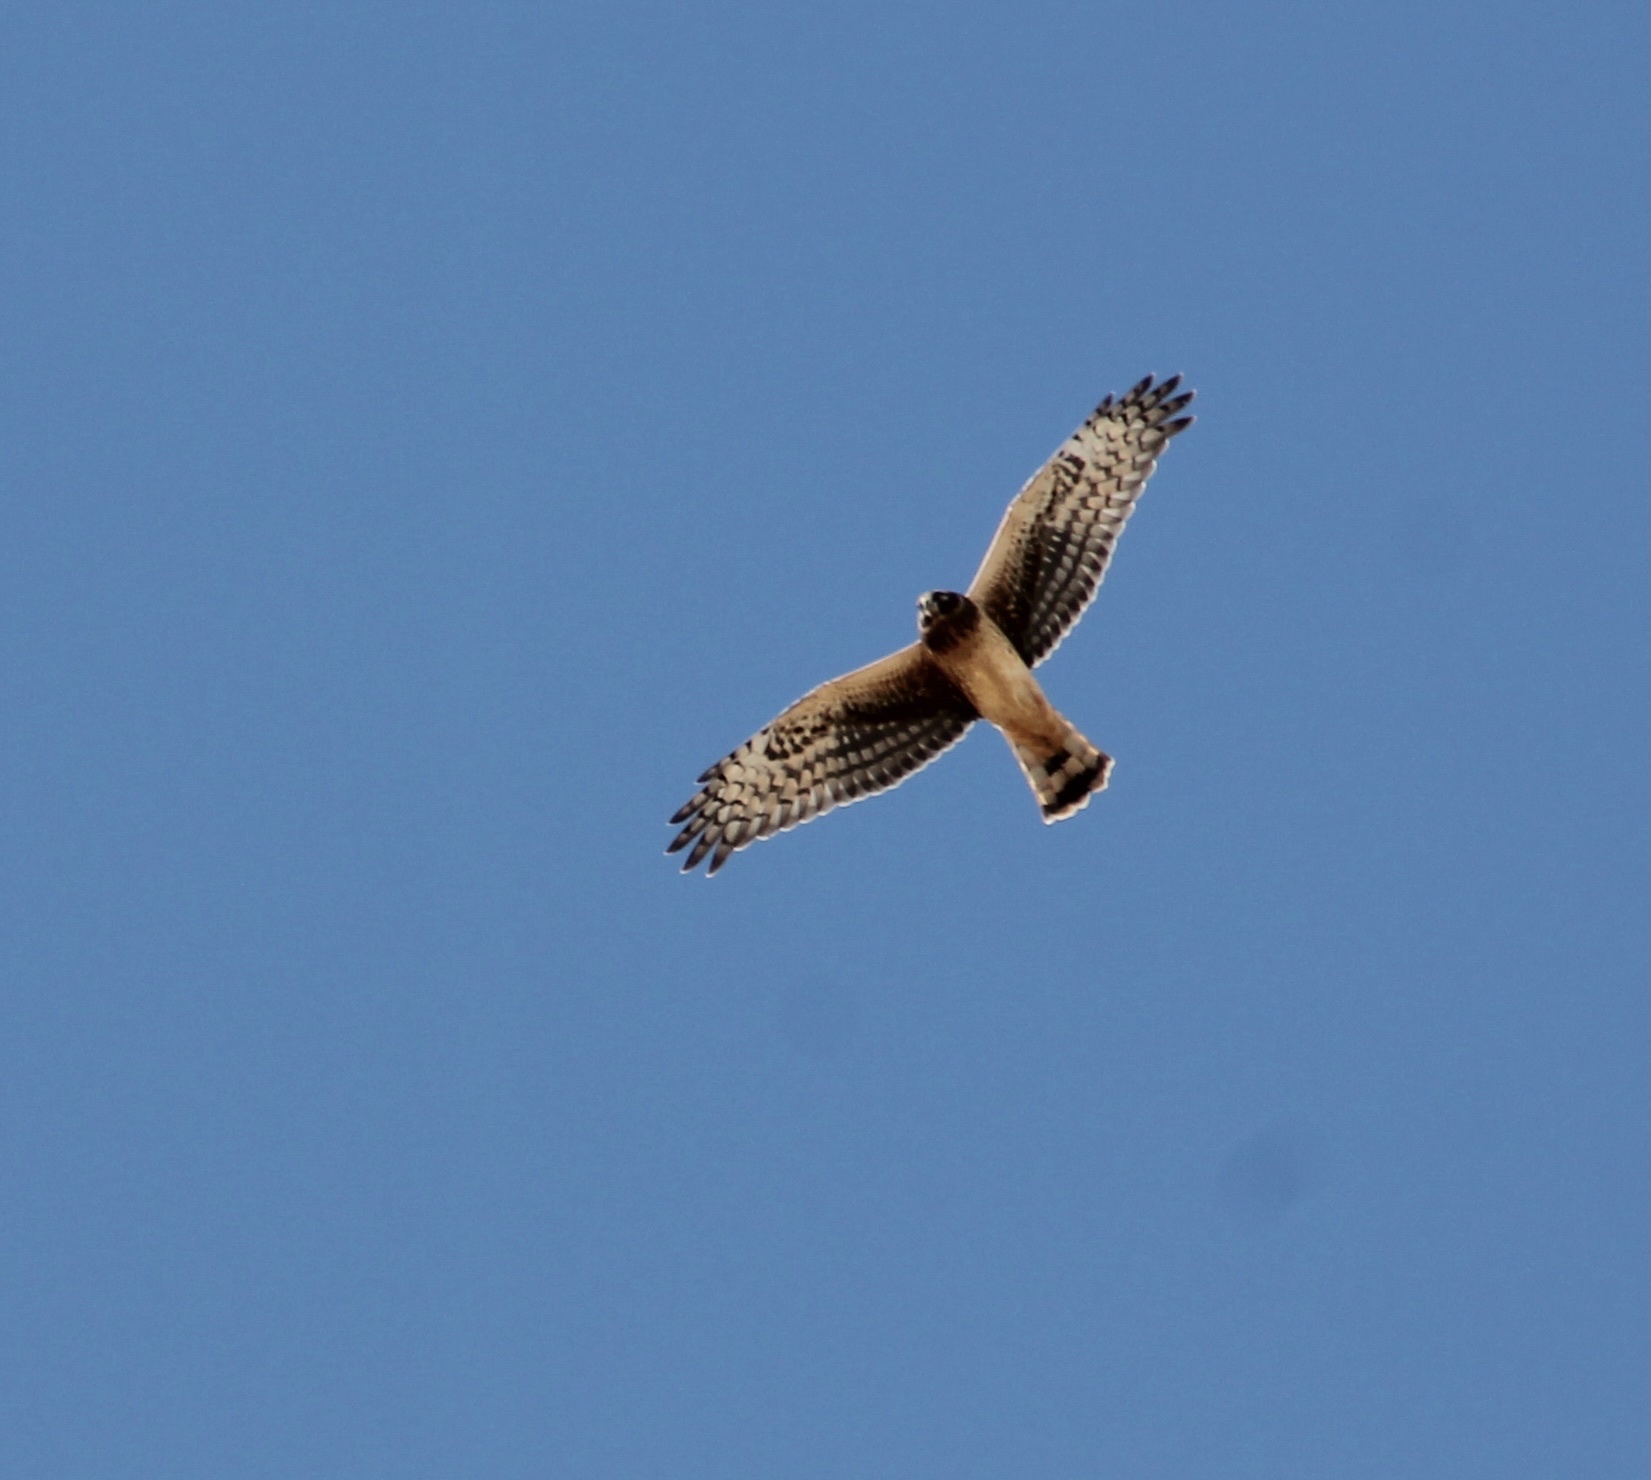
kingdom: Animalia
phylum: Chordata
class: Aves
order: Accipitriformes
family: Accipitridae
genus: Circus
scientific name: Circus cyaneus
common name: Hen harrier
